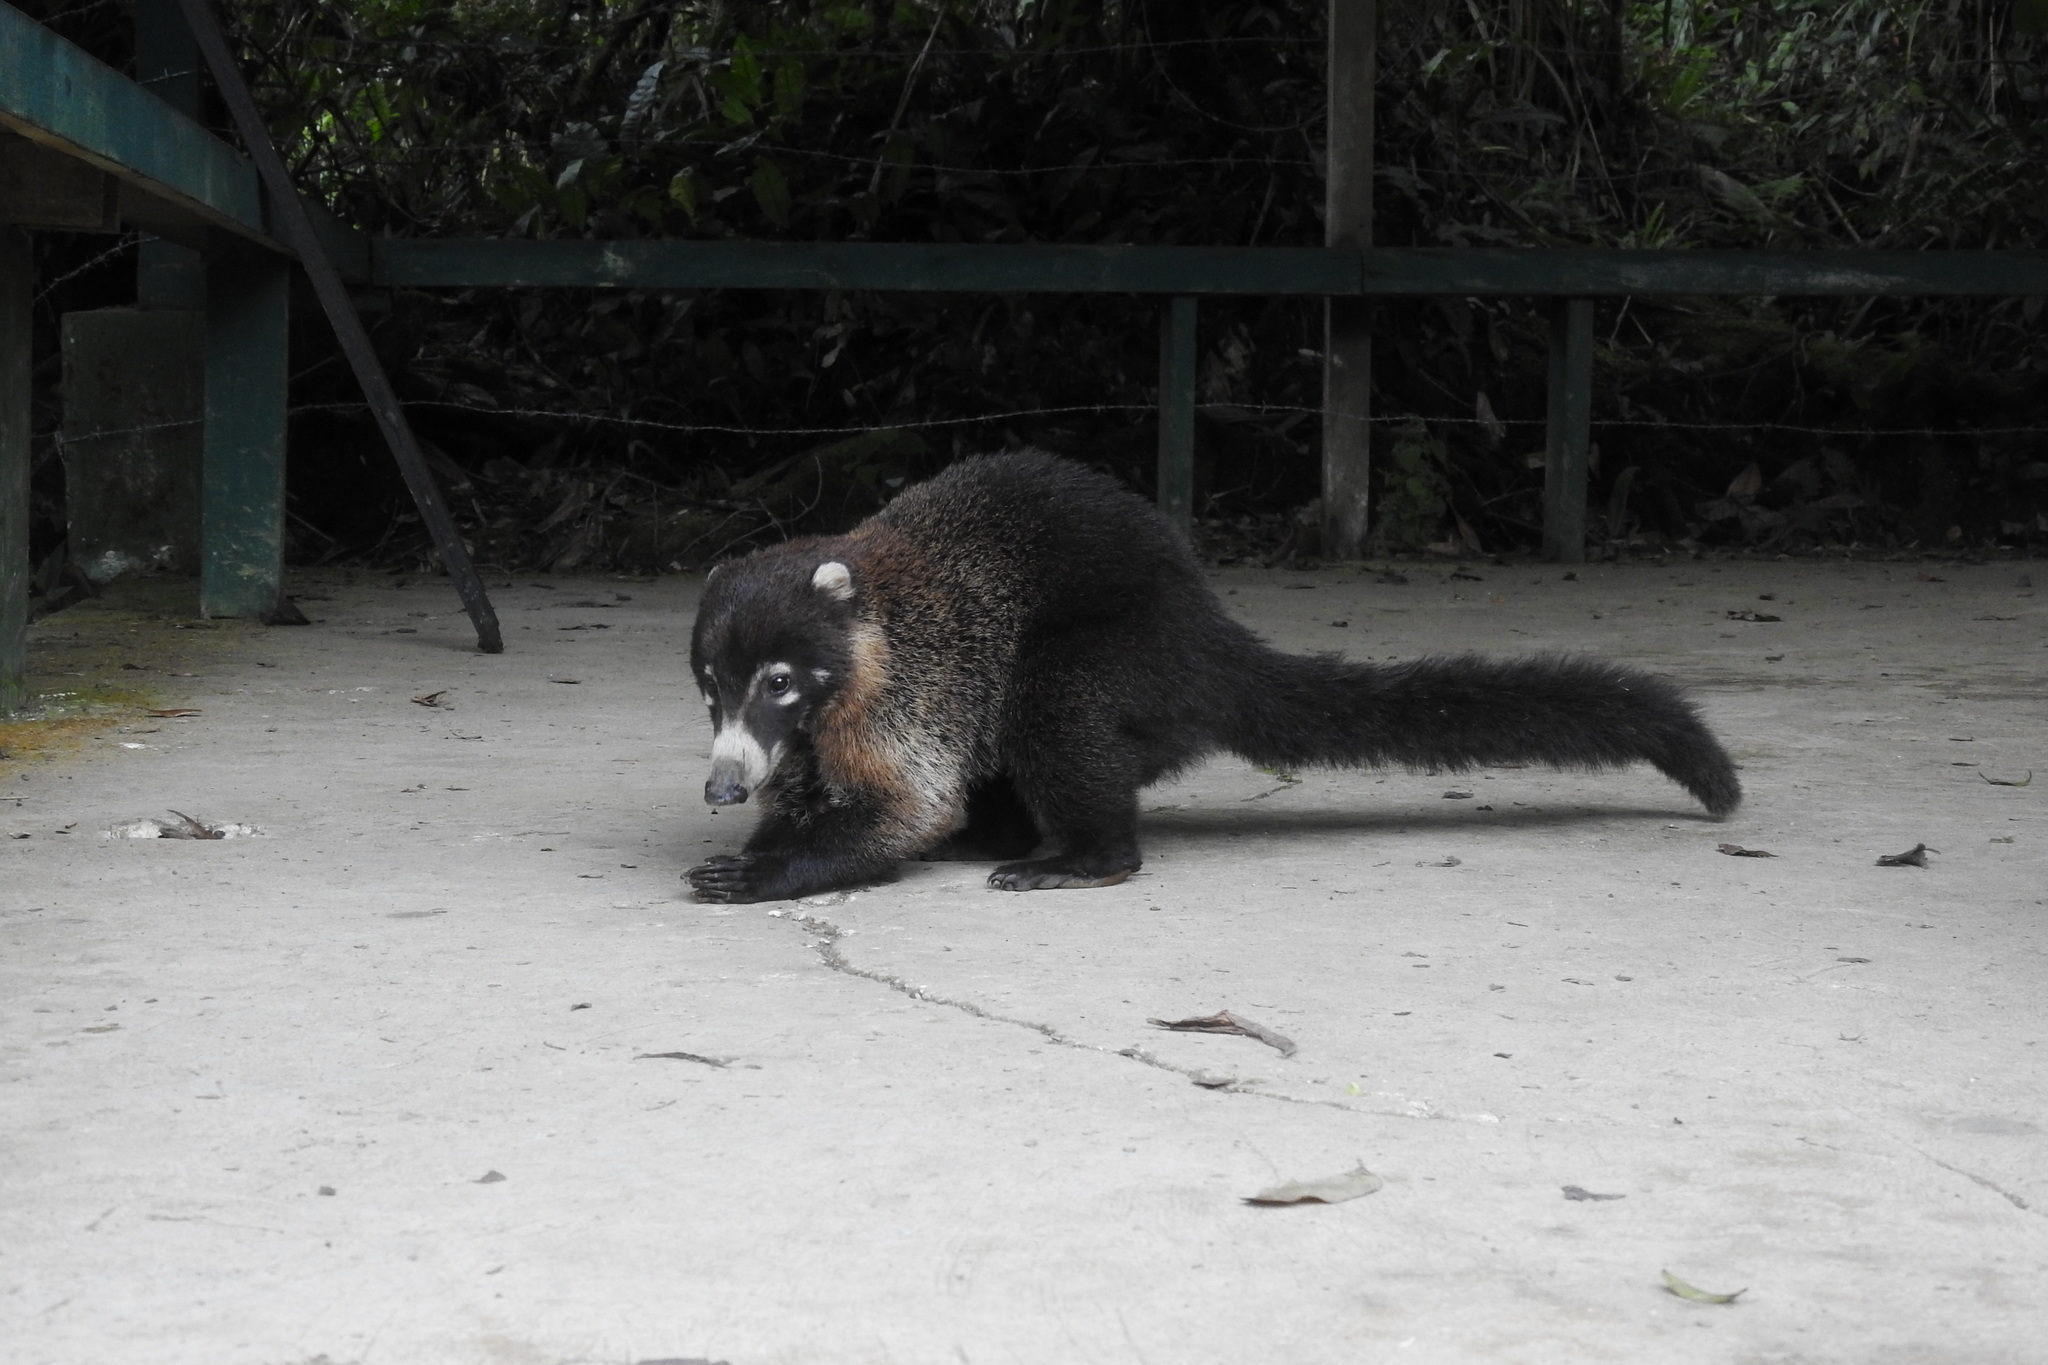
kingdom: Animalia
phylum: Chordata
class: Mammalia
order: Carnivora
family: Procyonidae
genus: Nasua
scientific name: Nasua narica
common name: White-nosed coati
